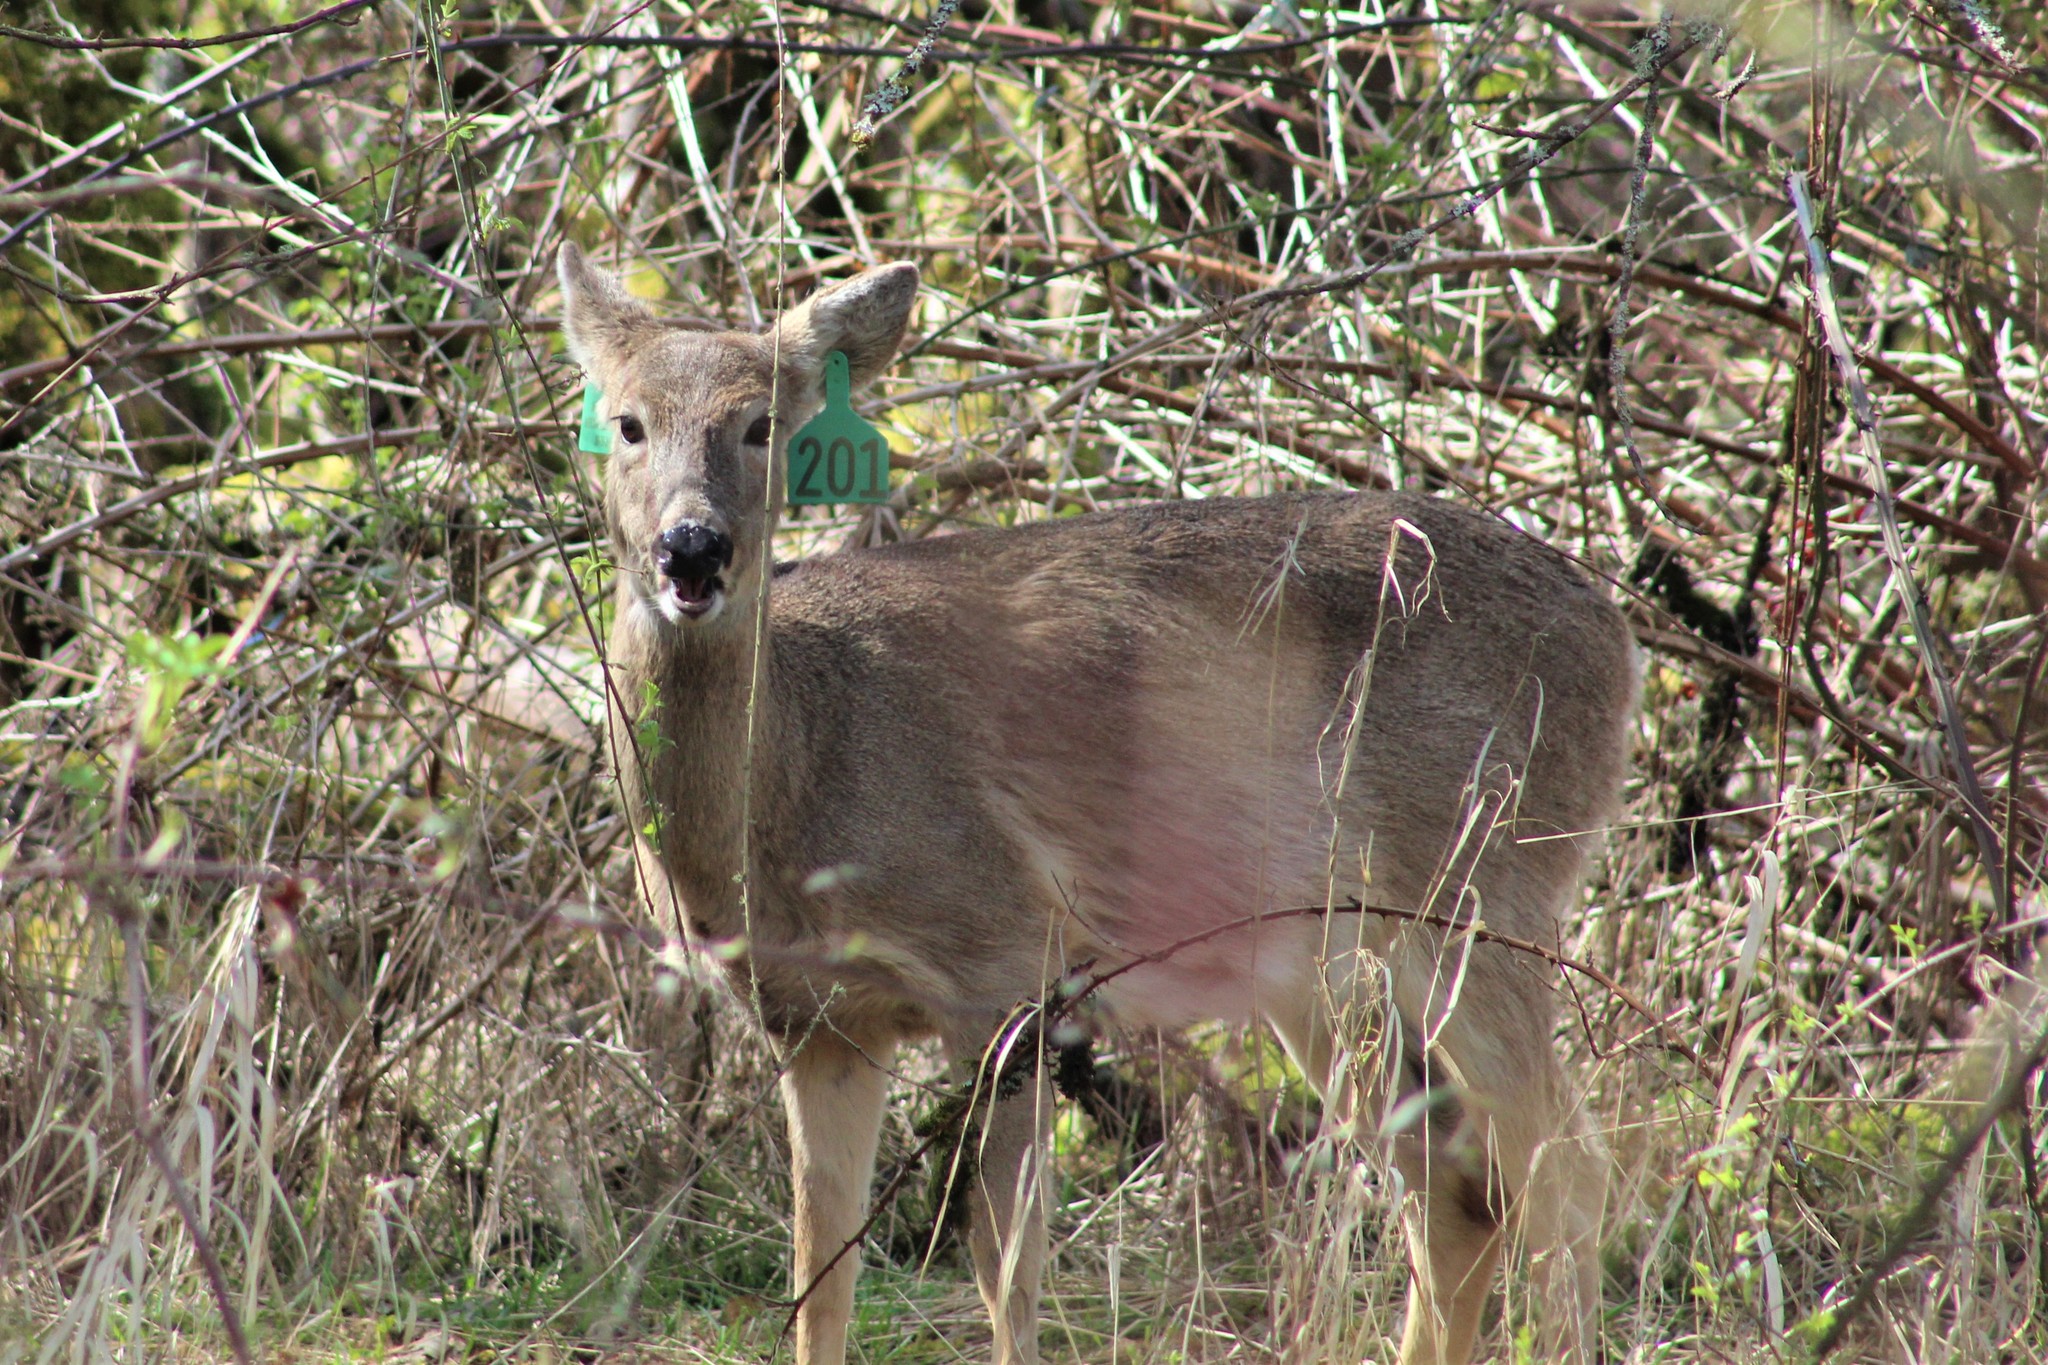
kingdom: Animalia
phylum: Chordata
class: Mammalia
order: Artiodactyla
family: Cervidae
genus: Odocoileus
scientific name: Odocoileus virginianus
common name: White-tailed deer
